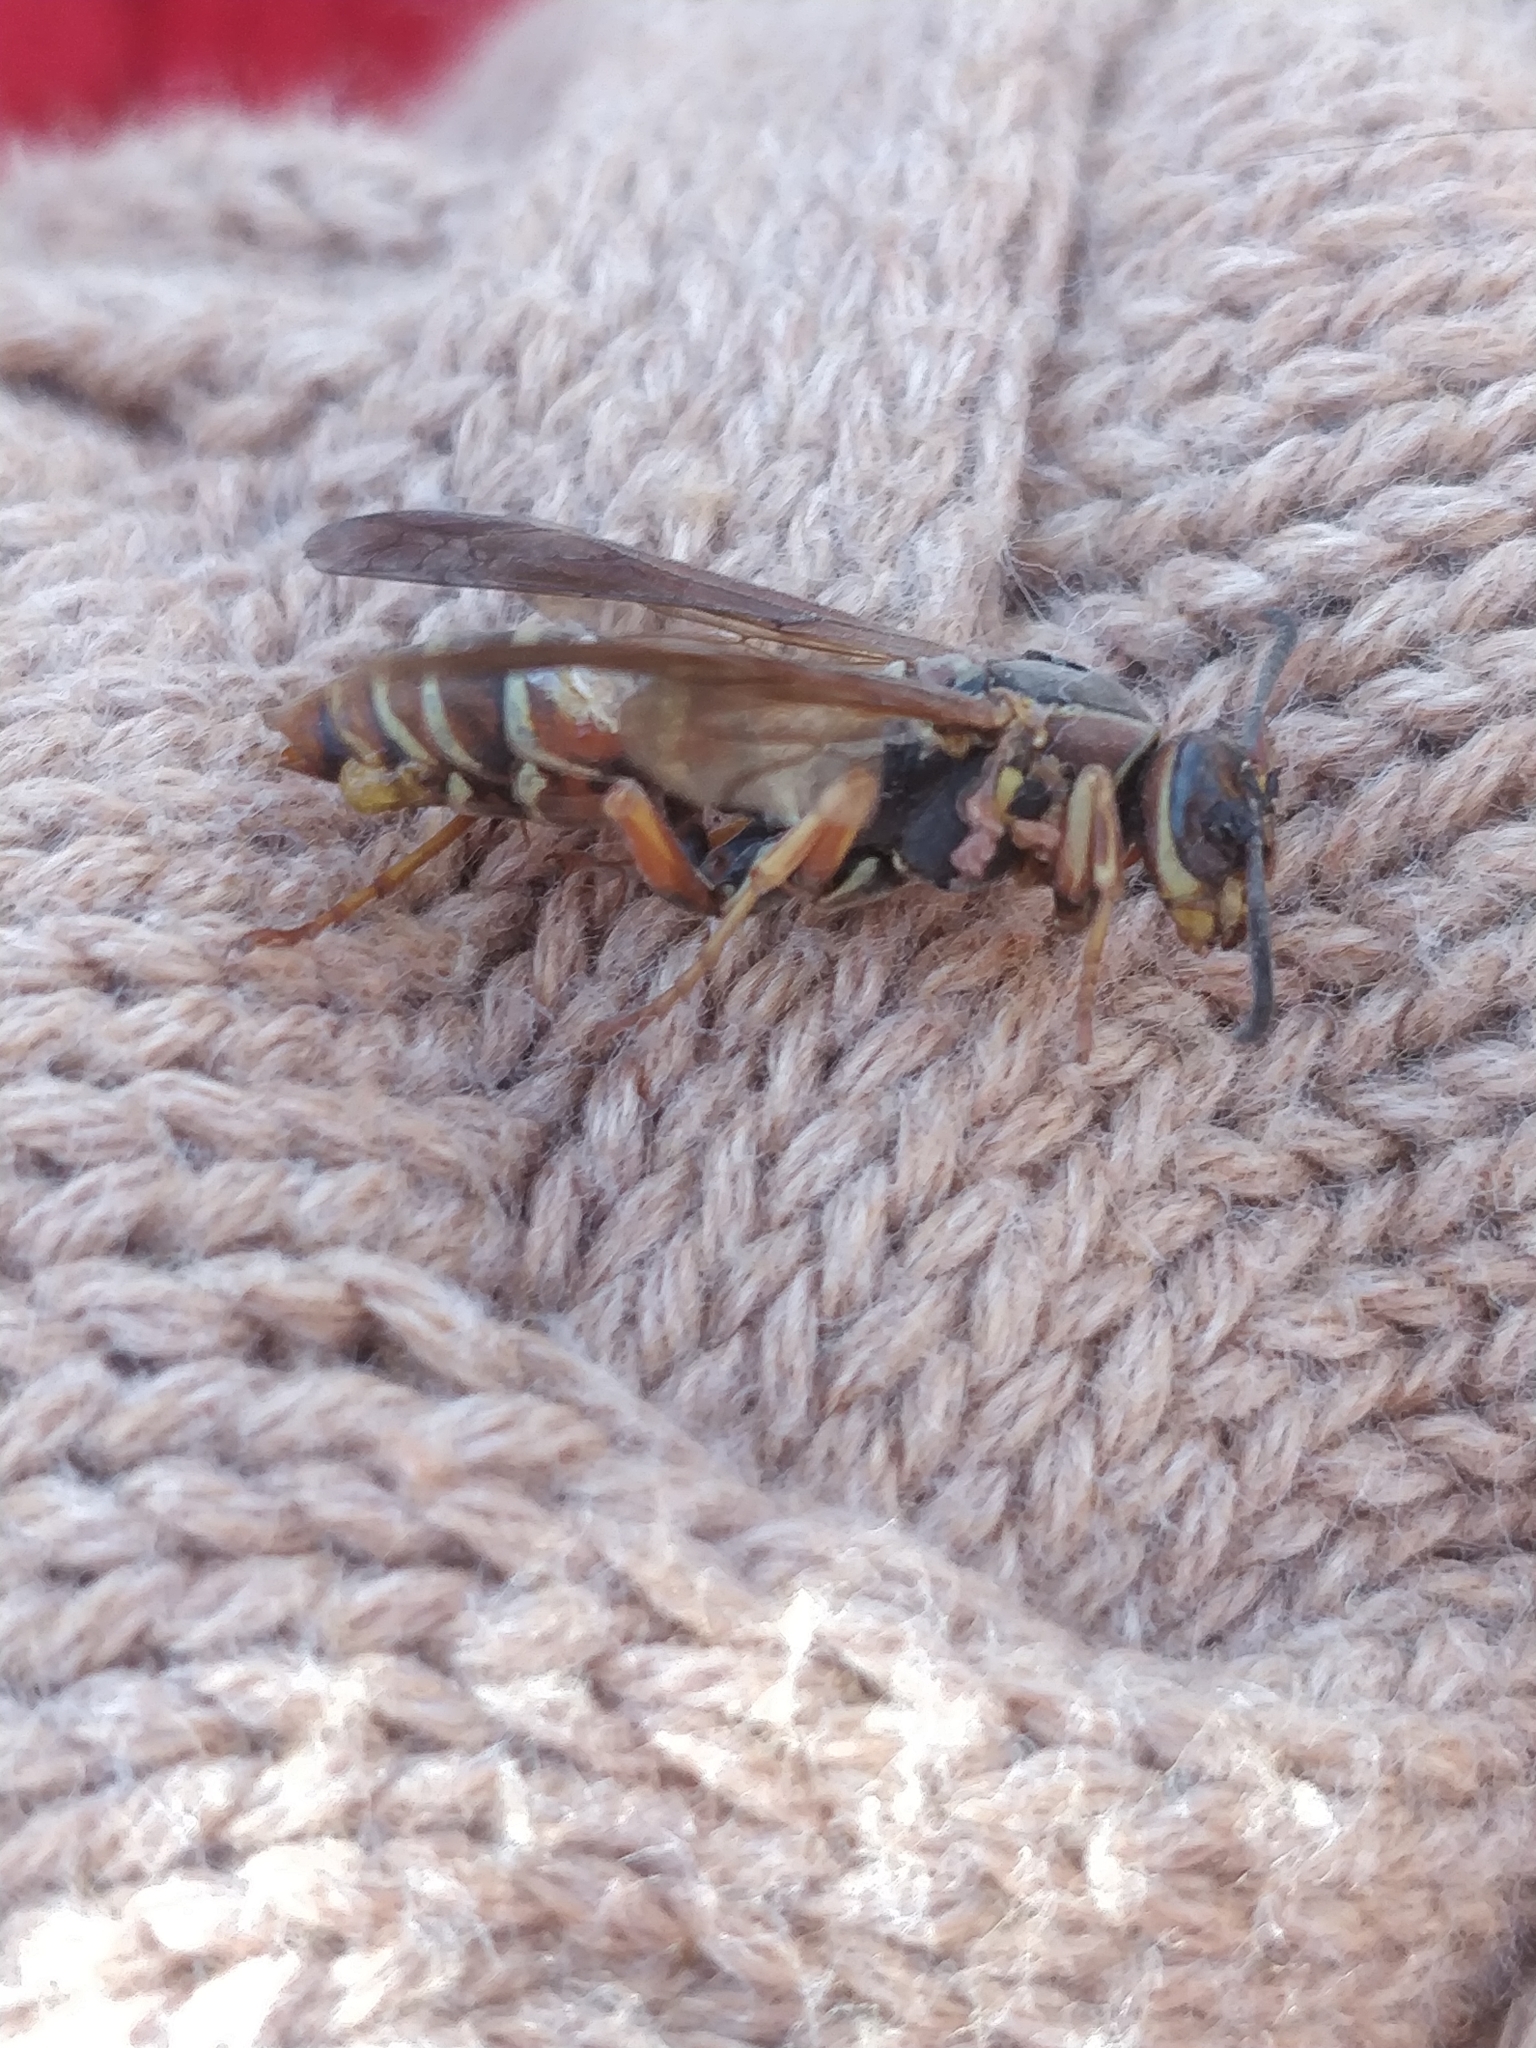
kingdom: Animalia
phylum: Arthropoda
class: Insecta
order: Hymenoptera
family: Eumenidae
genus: Polistes
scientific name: Polistes fuscatus
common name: Dark paper wasp
